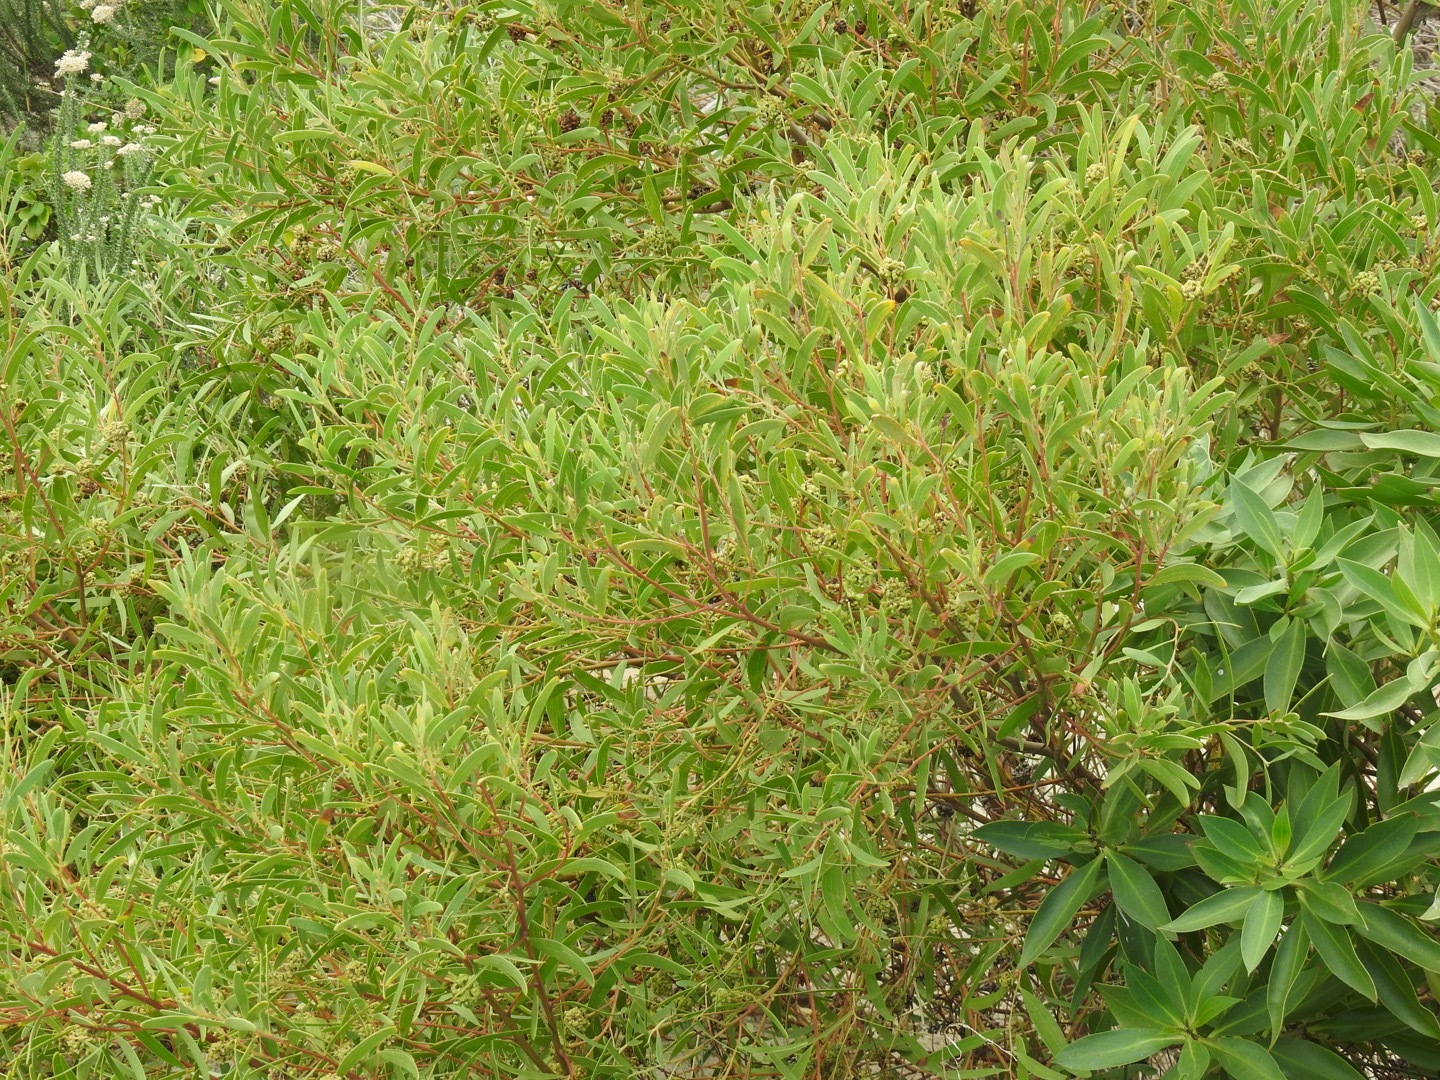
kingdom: Plantae
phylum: Tracheophyta
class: Magnoliopsida
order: Fabales
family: Fabaceae
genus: Acacia
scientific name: Acacia cyclops
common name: Coastal wattle
